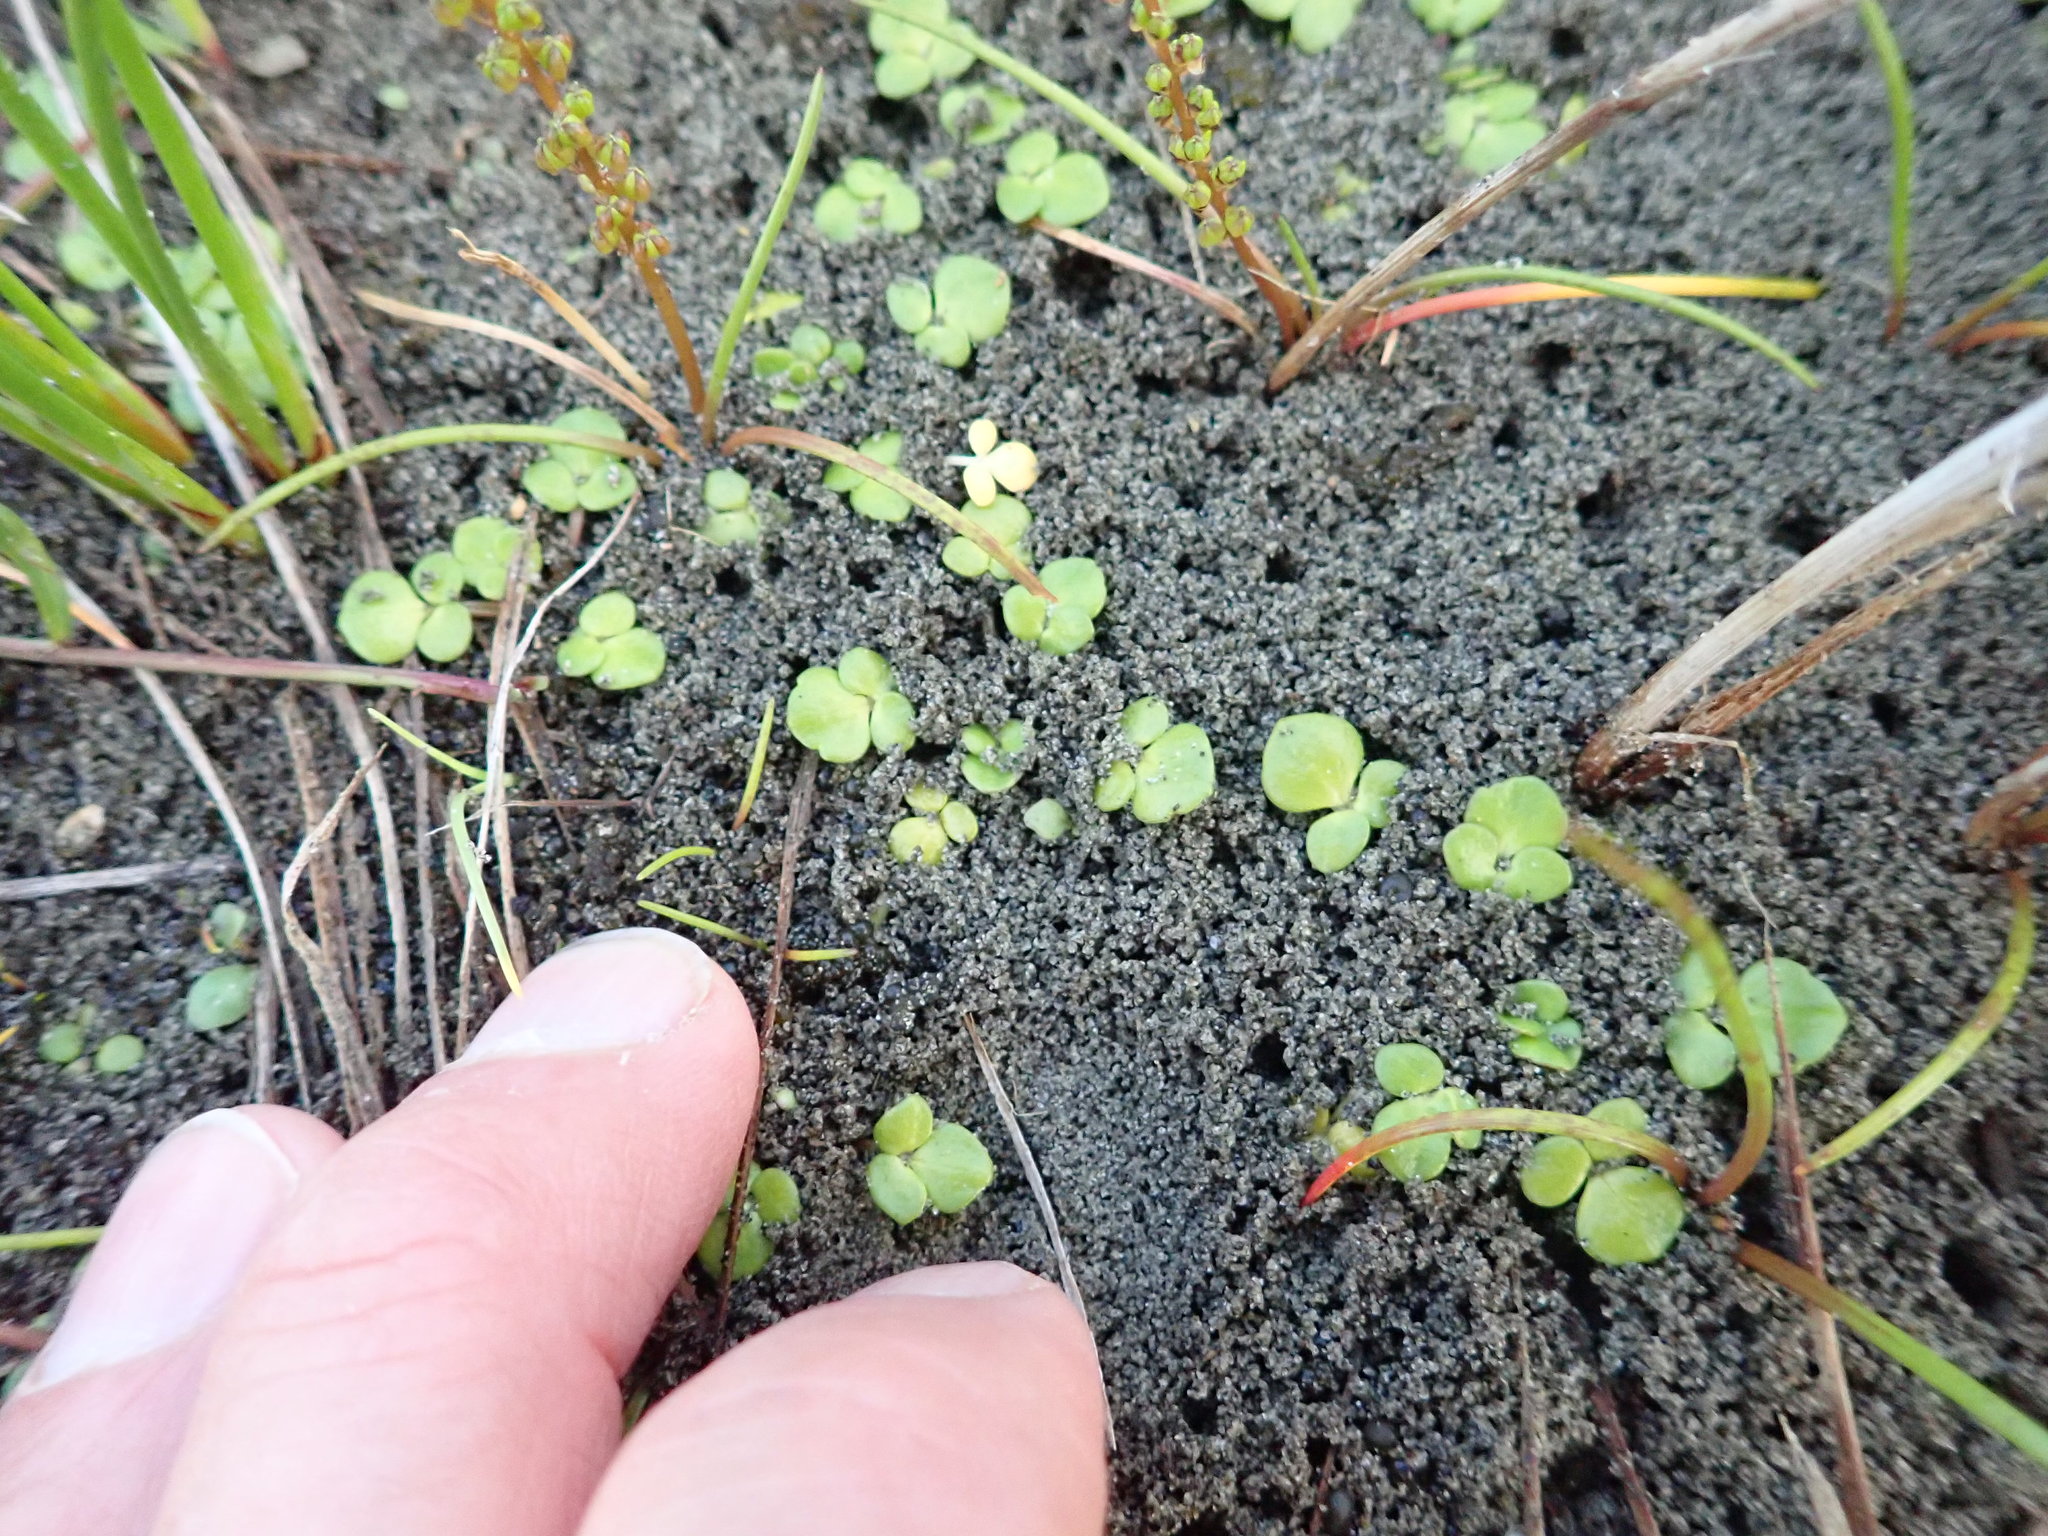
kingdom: Plantae
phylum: Tracheophyta
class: Magnoliopsida
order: Ranunculales
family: Ranunculaceae
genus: Ranunculus
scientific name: Ranunculus acaulis
